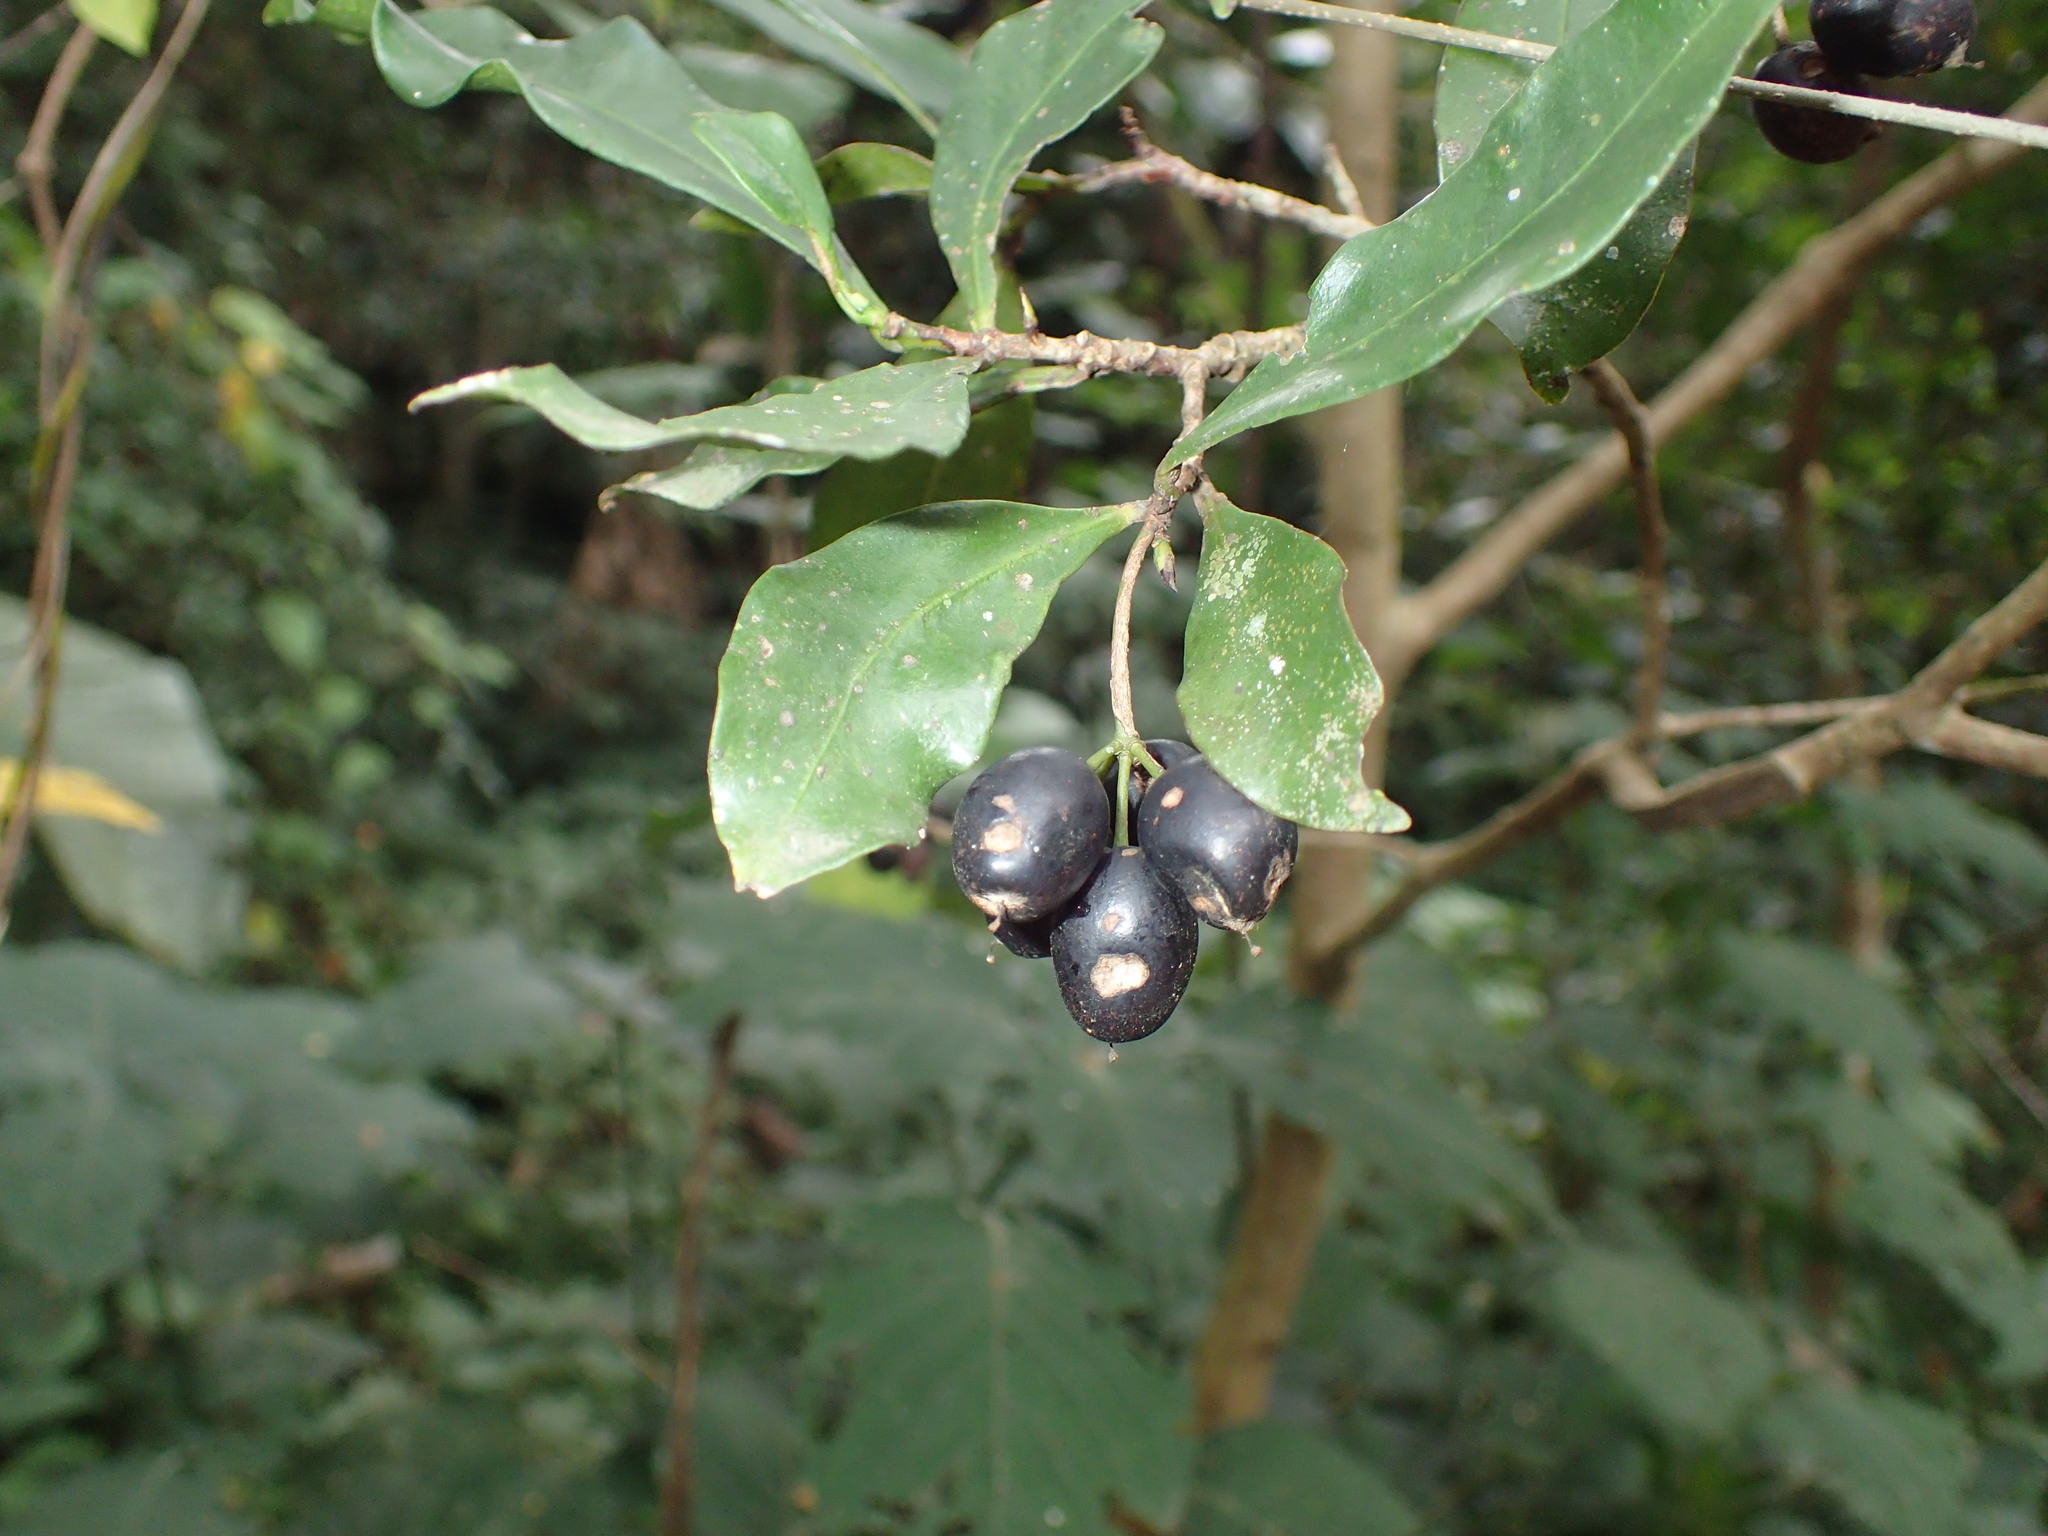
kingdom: Plantae
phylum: Tracheophyta
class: Magnoliopsida
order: Malvales
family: Thymelaeaceae
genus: Peddiea
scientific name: Peddiea africana
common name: Poison olive
